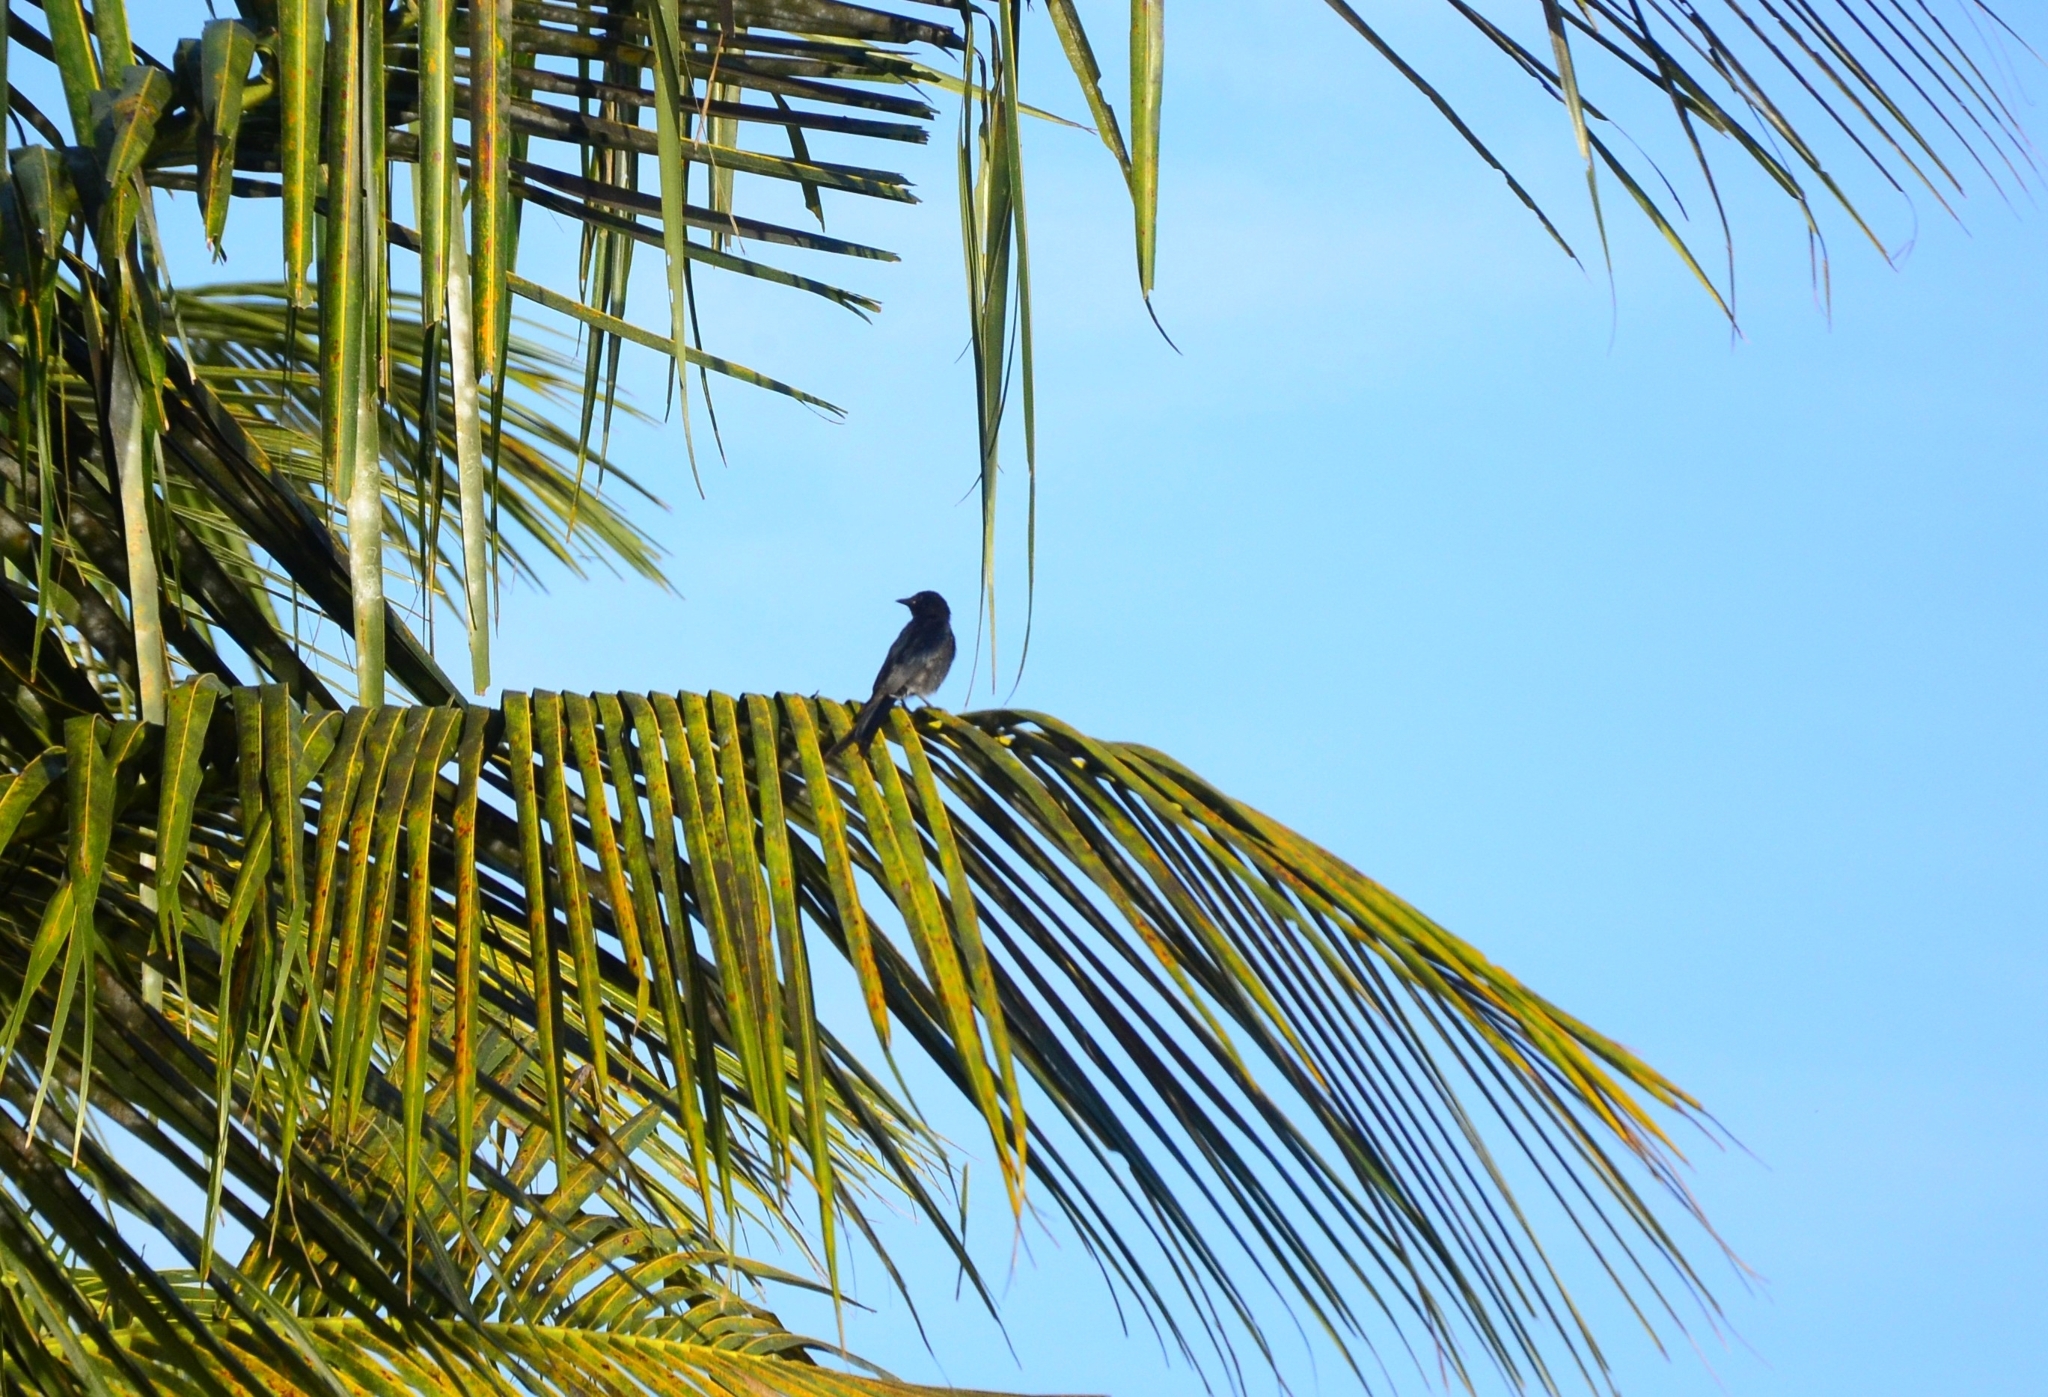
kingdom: Animalia
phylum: Chordata
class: Aves
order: Passeriformes
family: Dicruridae
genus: Dicrurus
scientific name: Dicrurus macrocercus
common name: Black drongo
